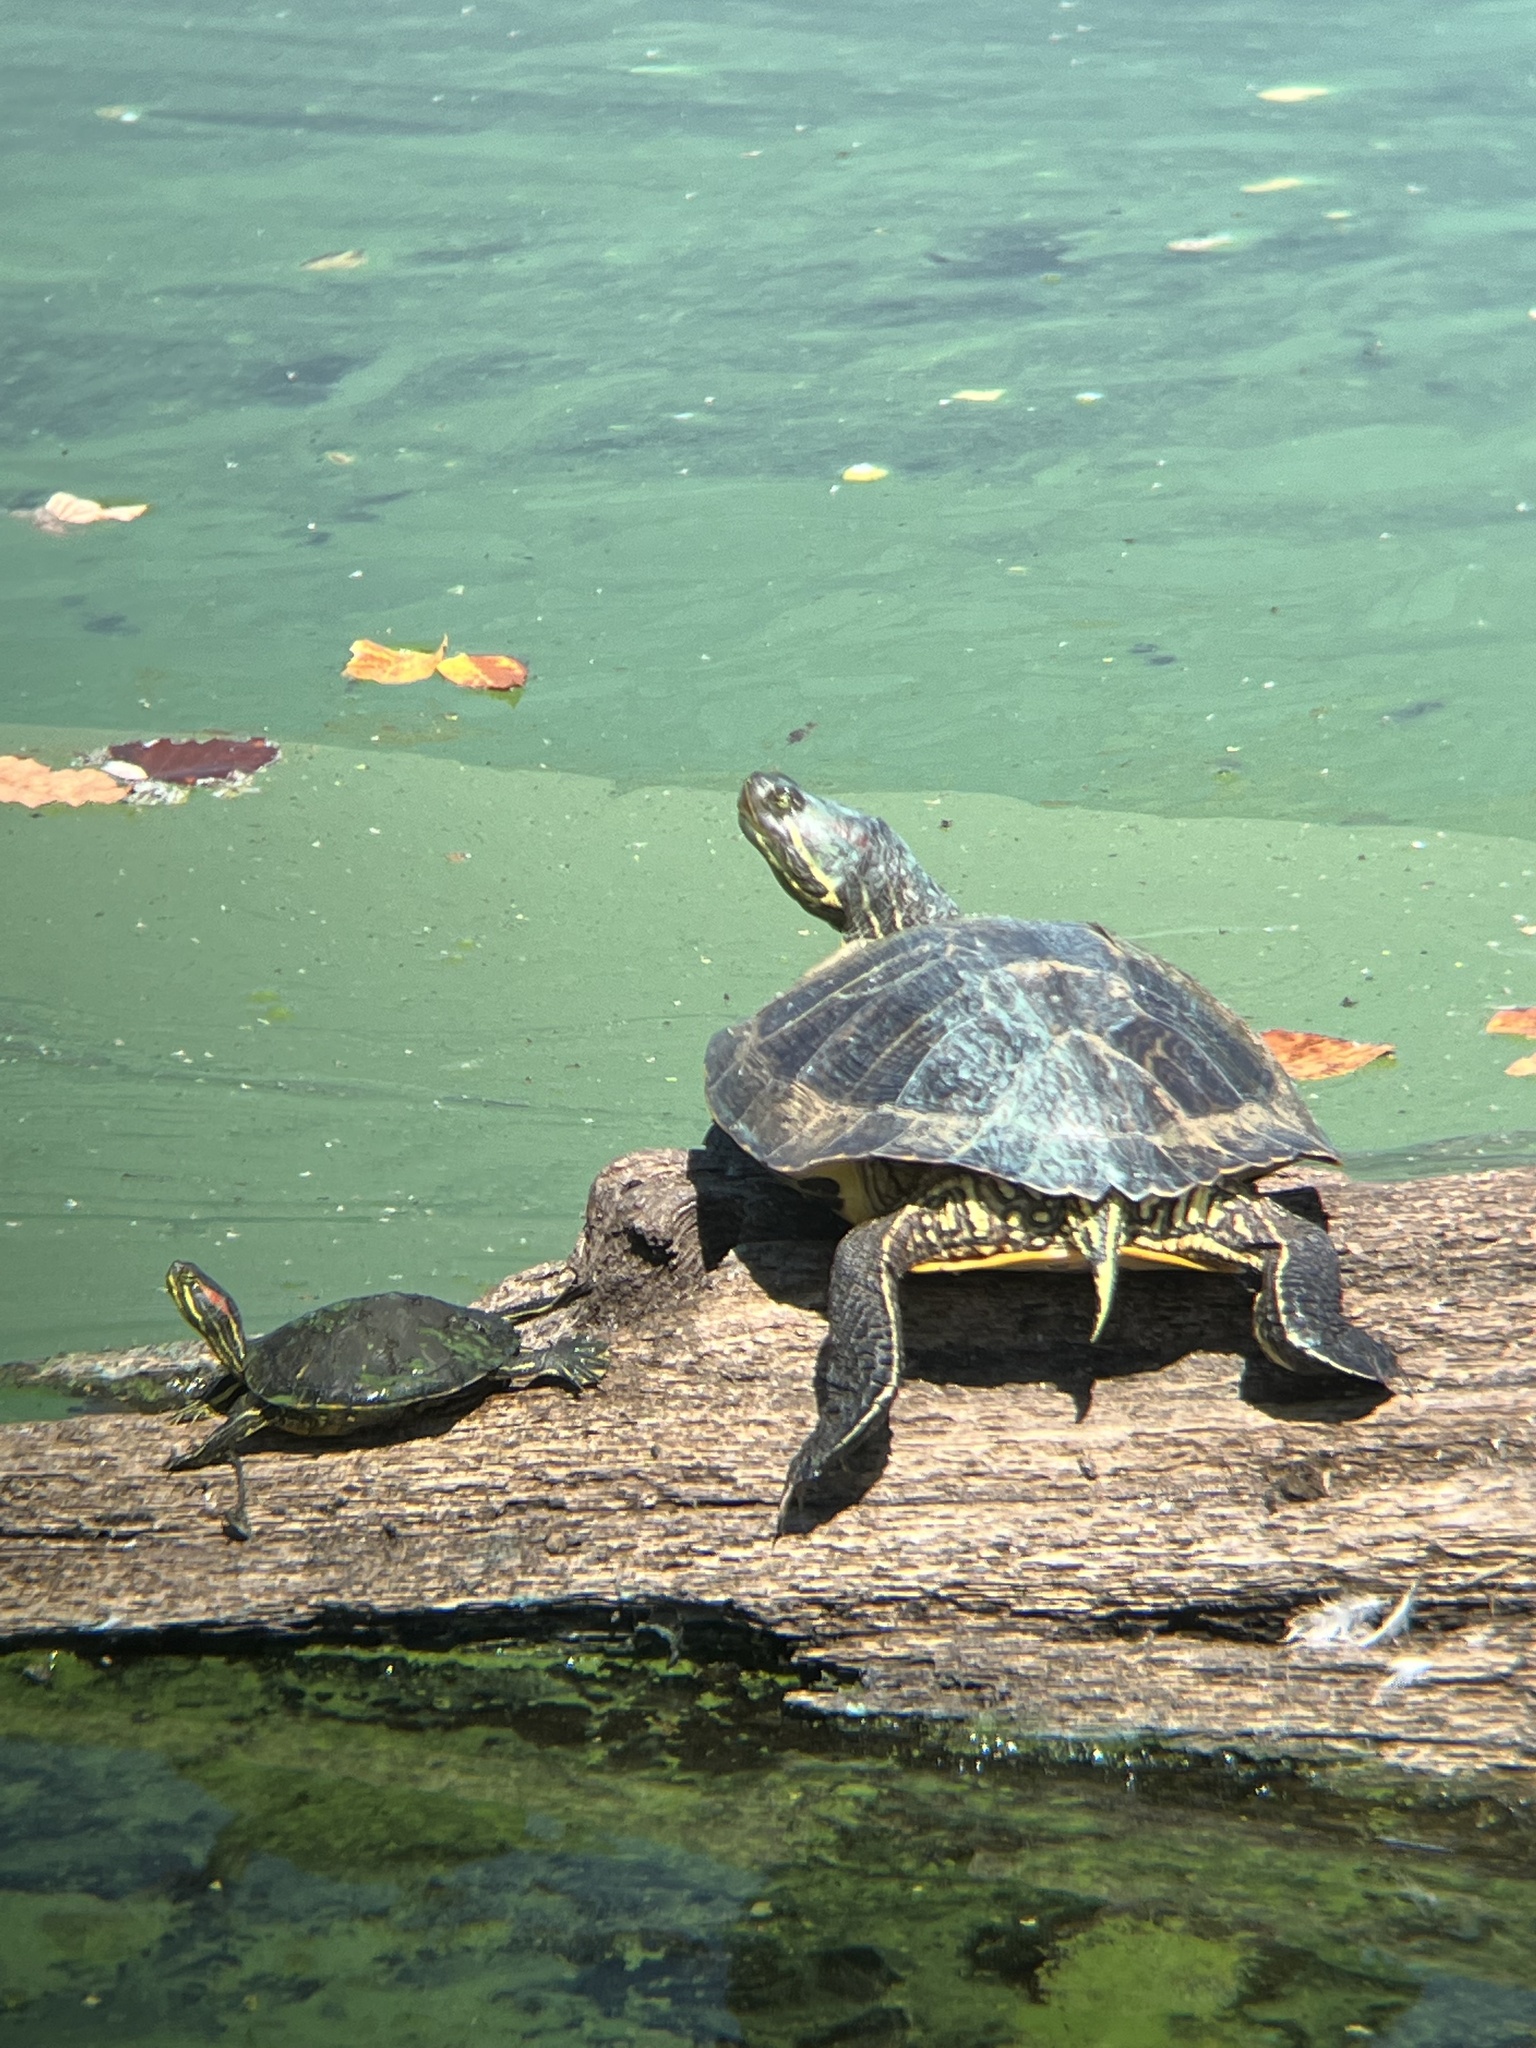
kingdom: Animalia
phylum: Chordata
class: Testudines
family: Emydidae
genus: Trachemys
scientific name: Trachemys scripta
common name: Slider
